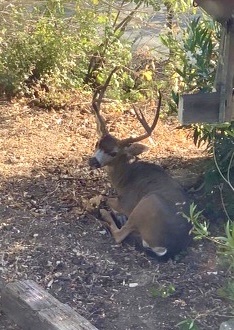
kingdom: Animalia
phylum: Chordata
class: Mammalia
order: Artiodactyla
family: Cervidae
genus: Odocoileus
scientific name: Odocoileus hemionus
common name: Mule deer
